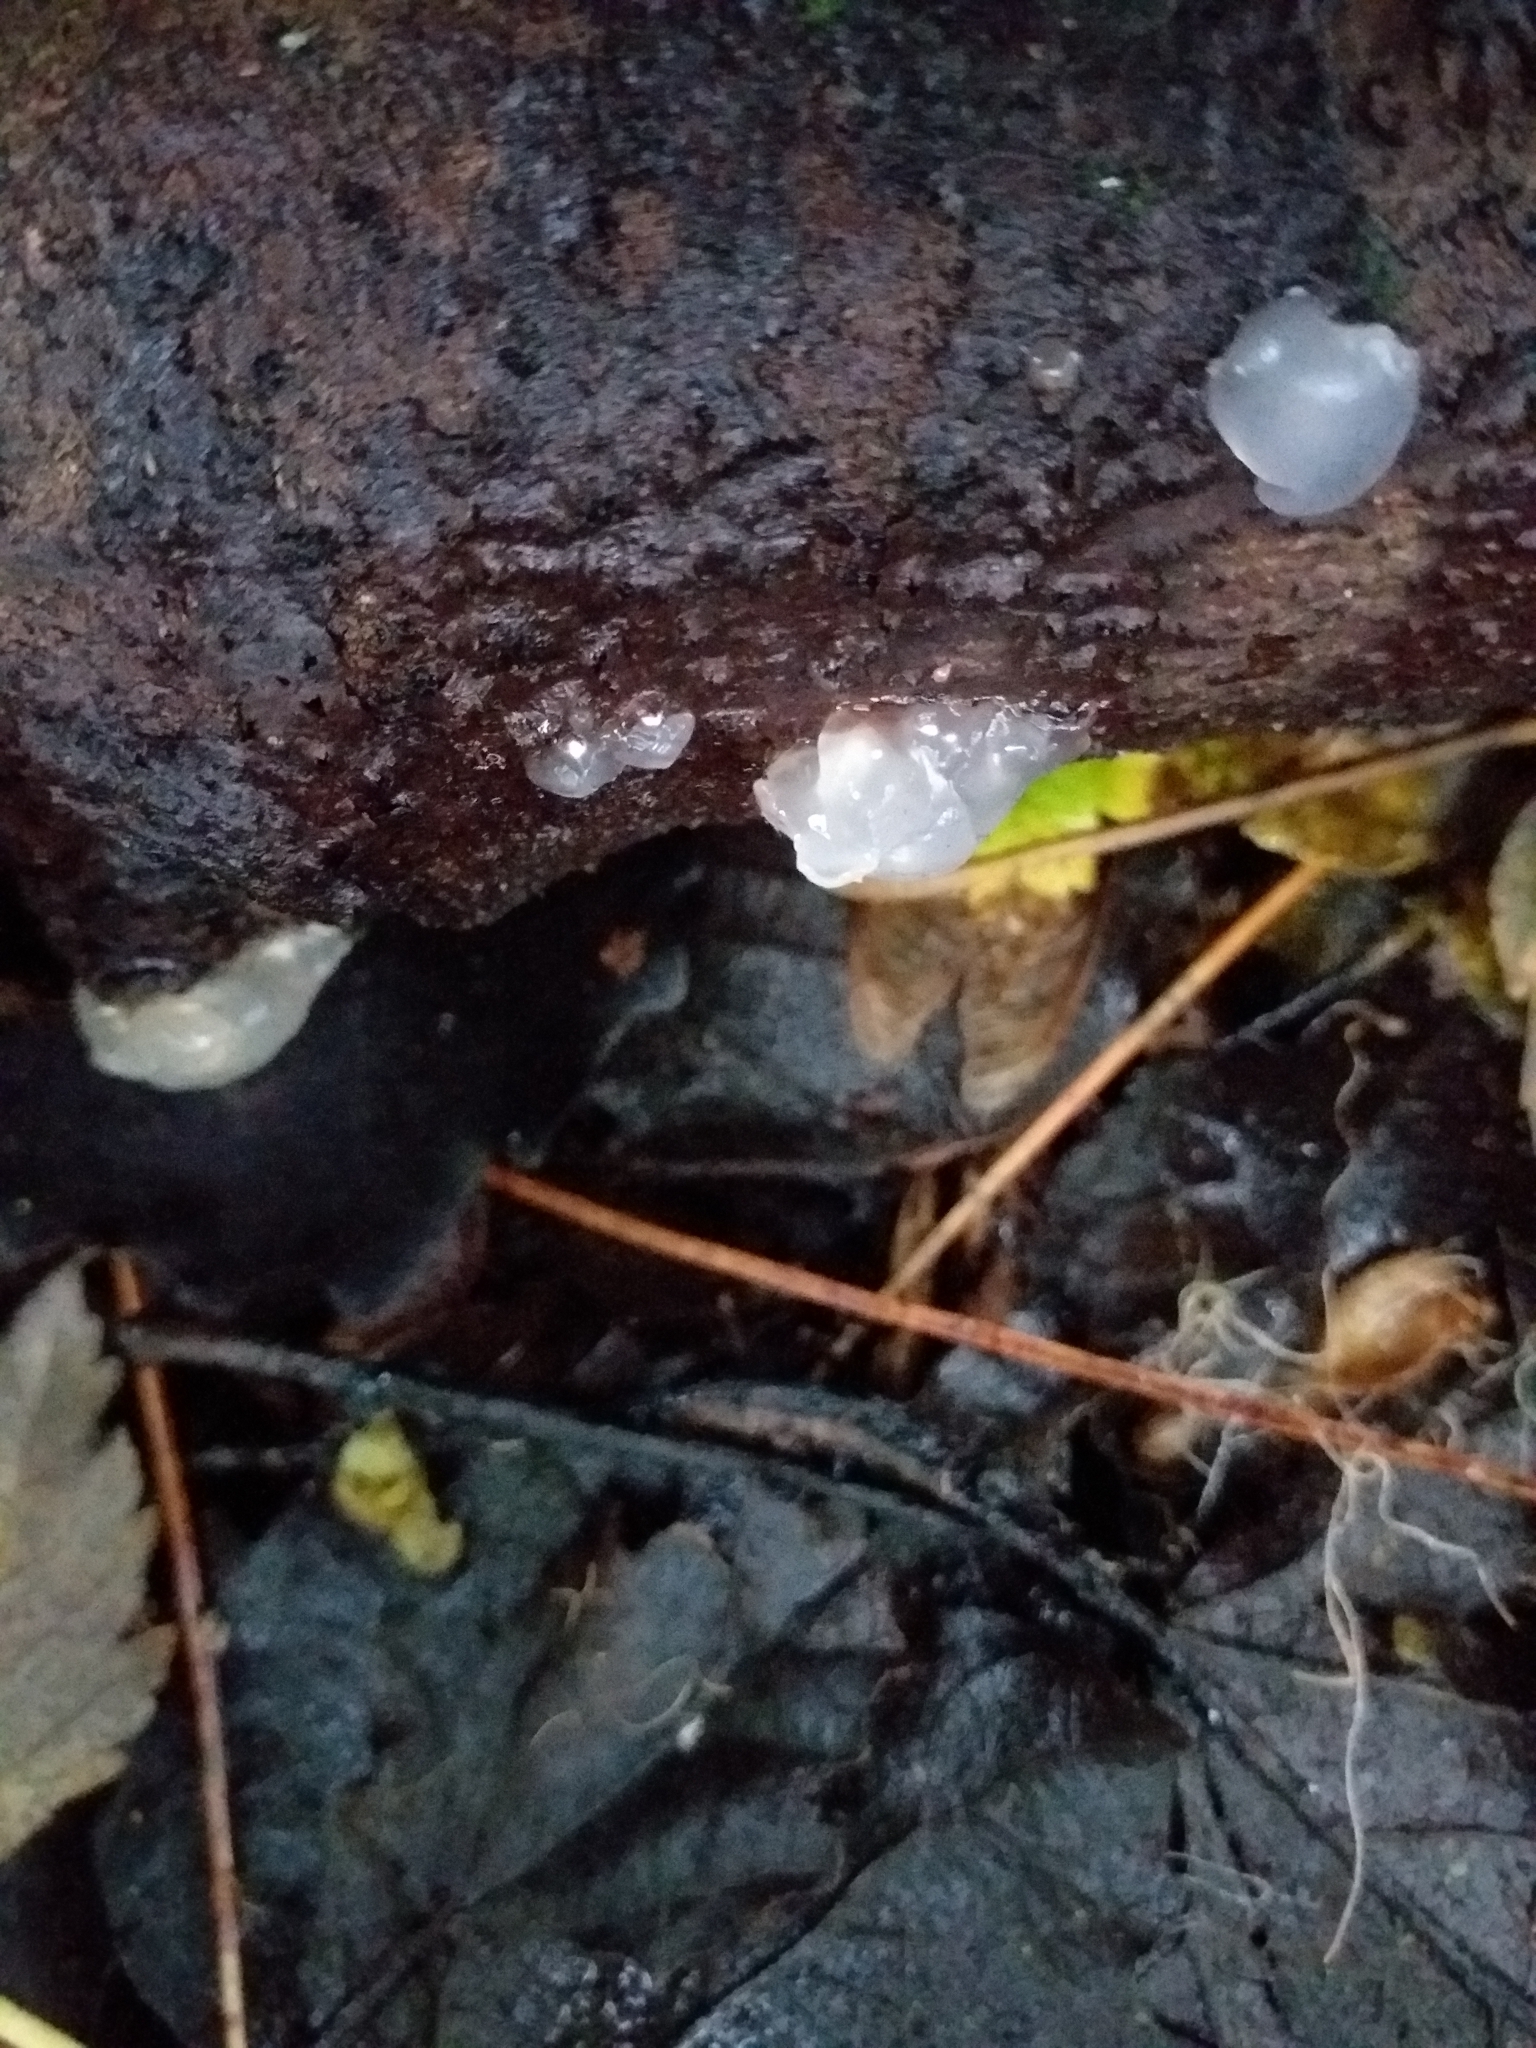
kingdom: Fungi
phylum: Basidiomycota
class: Agaricomycetes
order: Auriculariales
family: Hyaloriaceae
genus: Myxarium
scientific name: Myxarium nucleatum
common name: Crystal brain fungus
